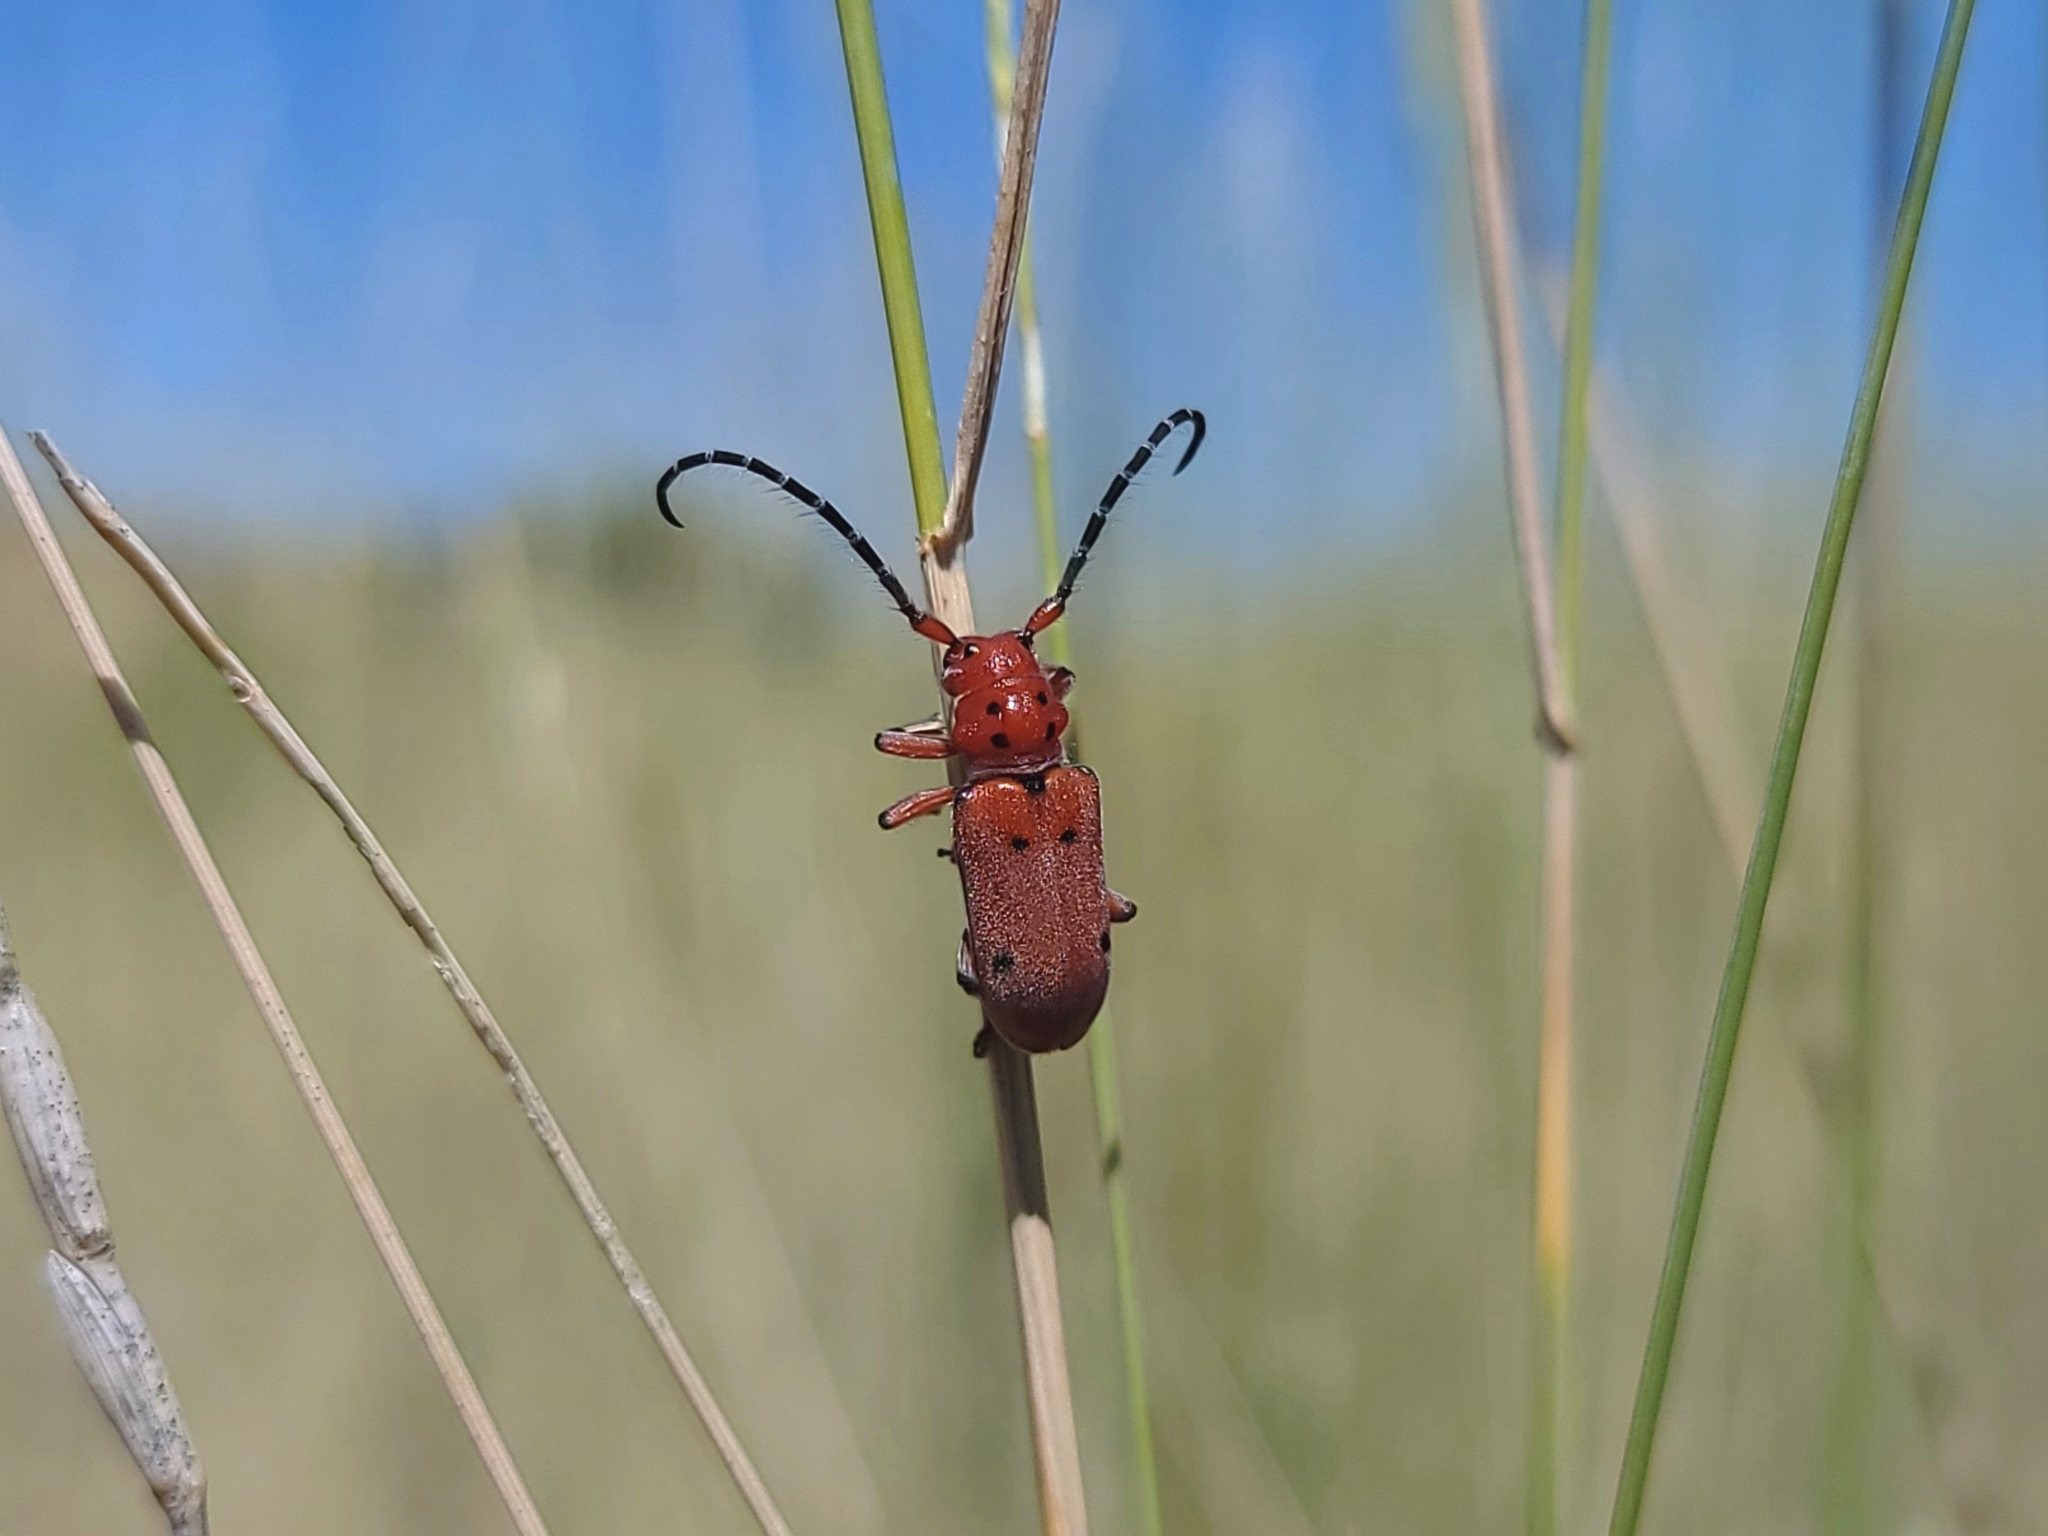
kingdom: Animalia
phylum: Arthropoda
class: Insecta
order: Coleoptera
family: Cerambycidae
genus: Tetraopes
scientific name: Tetraopes femoratus
